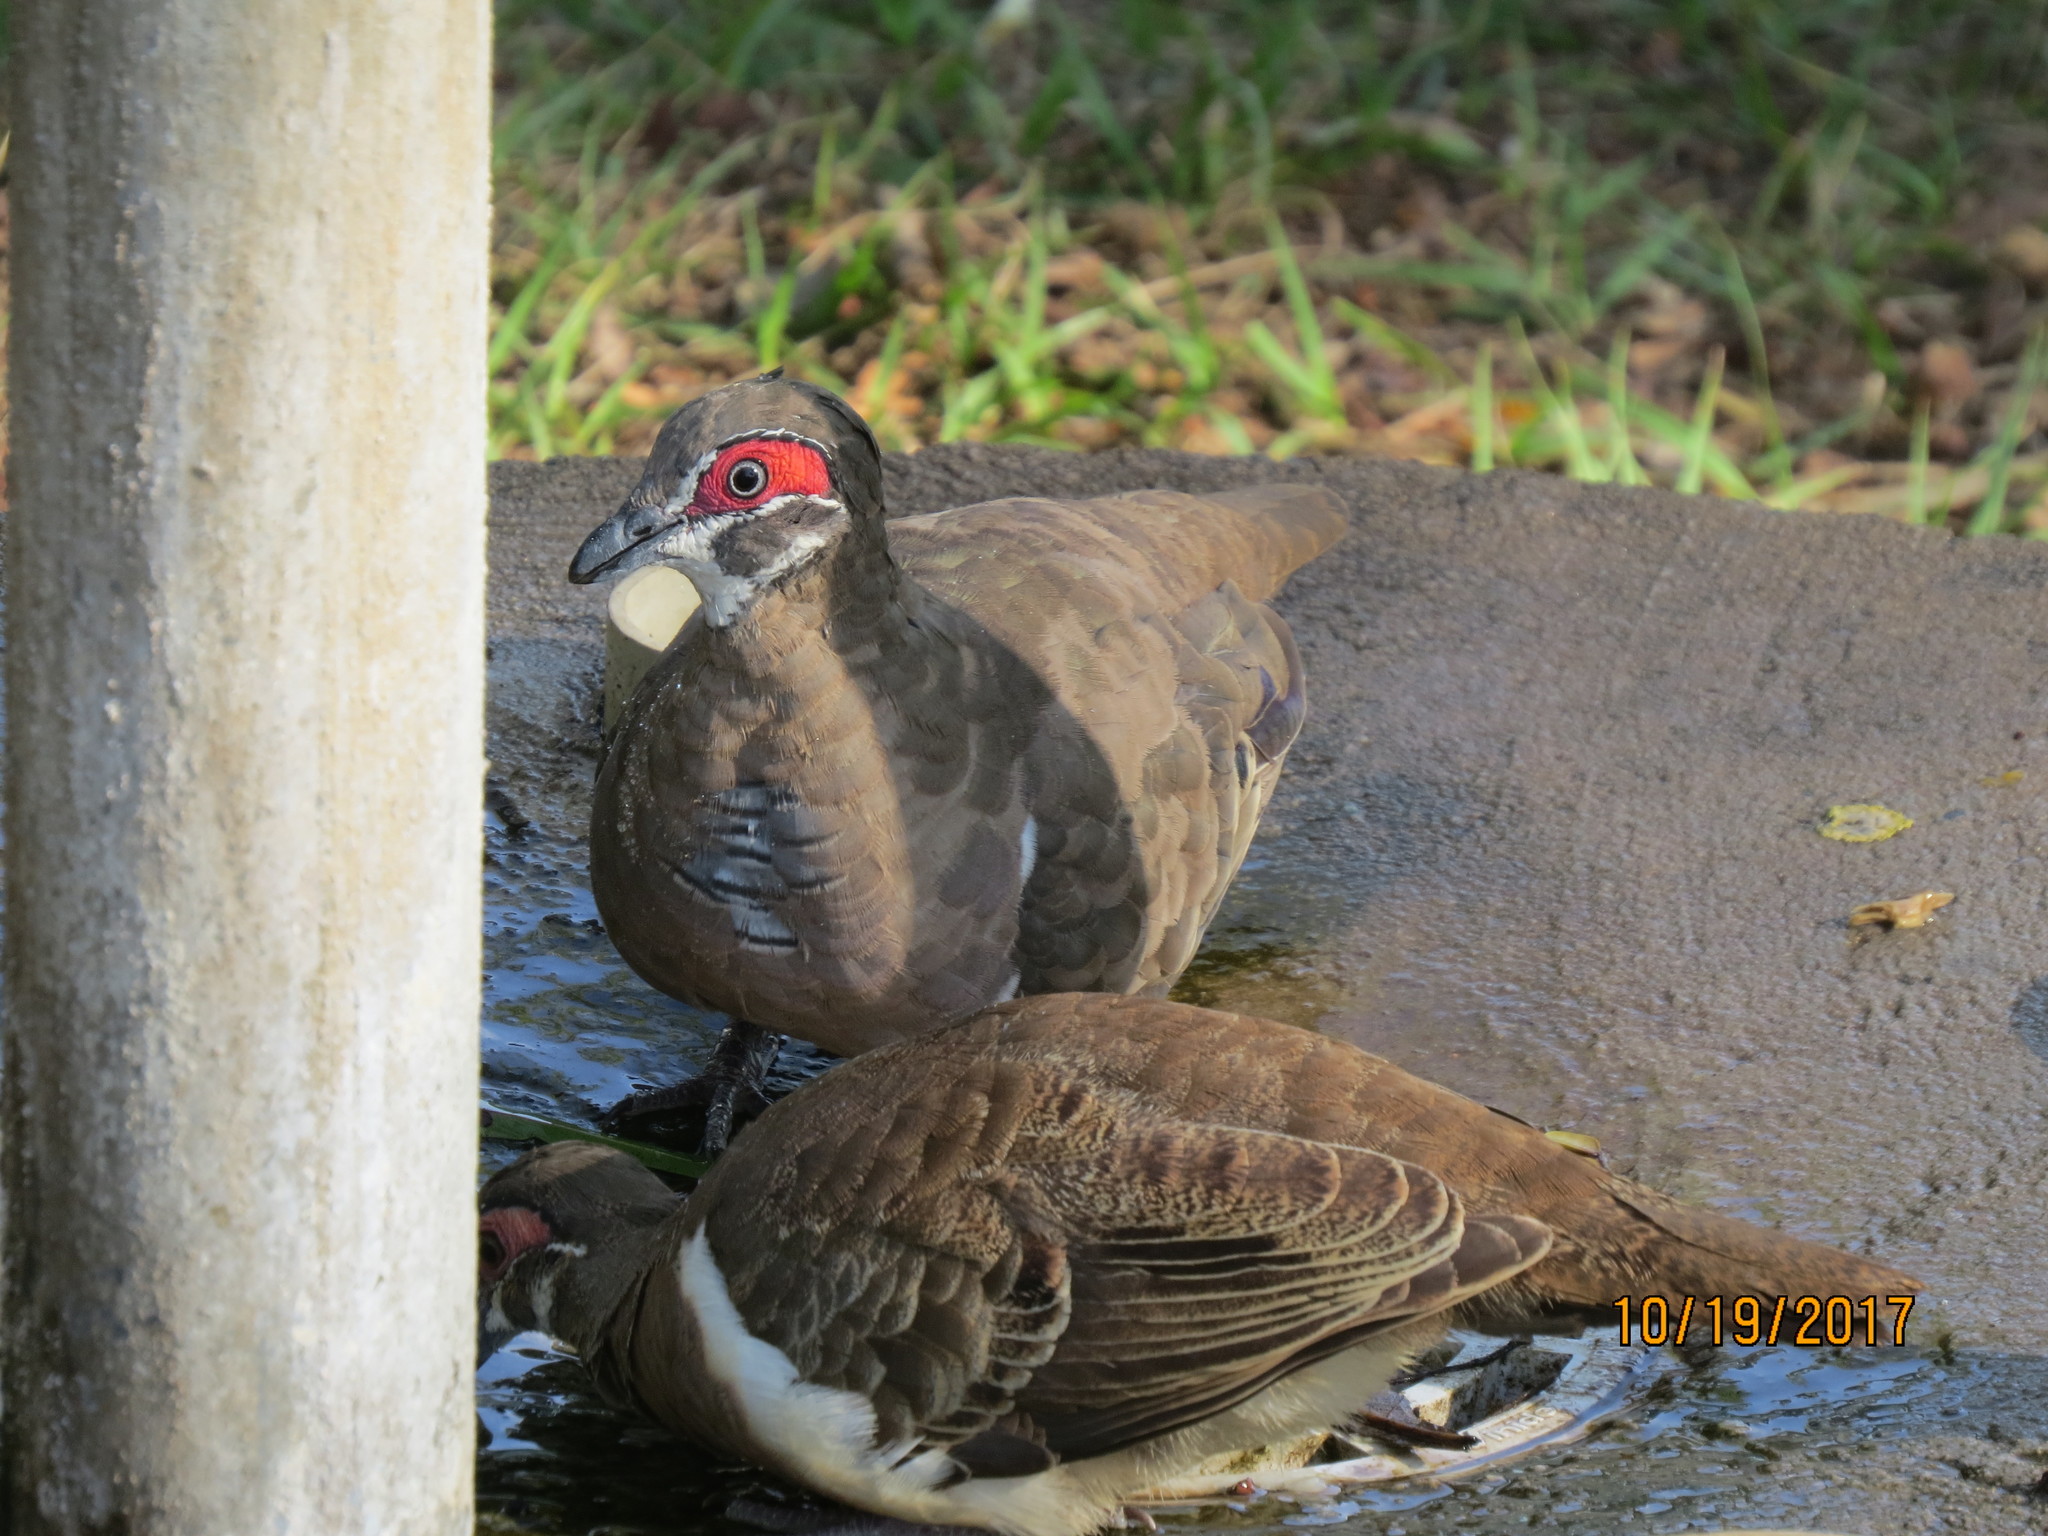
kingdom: Animalia
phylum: Chordata
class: Aves
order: Columbiformes
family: Columbidae
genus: Geophaps
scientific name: Geophaps smithii
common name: Partridge pigeon
